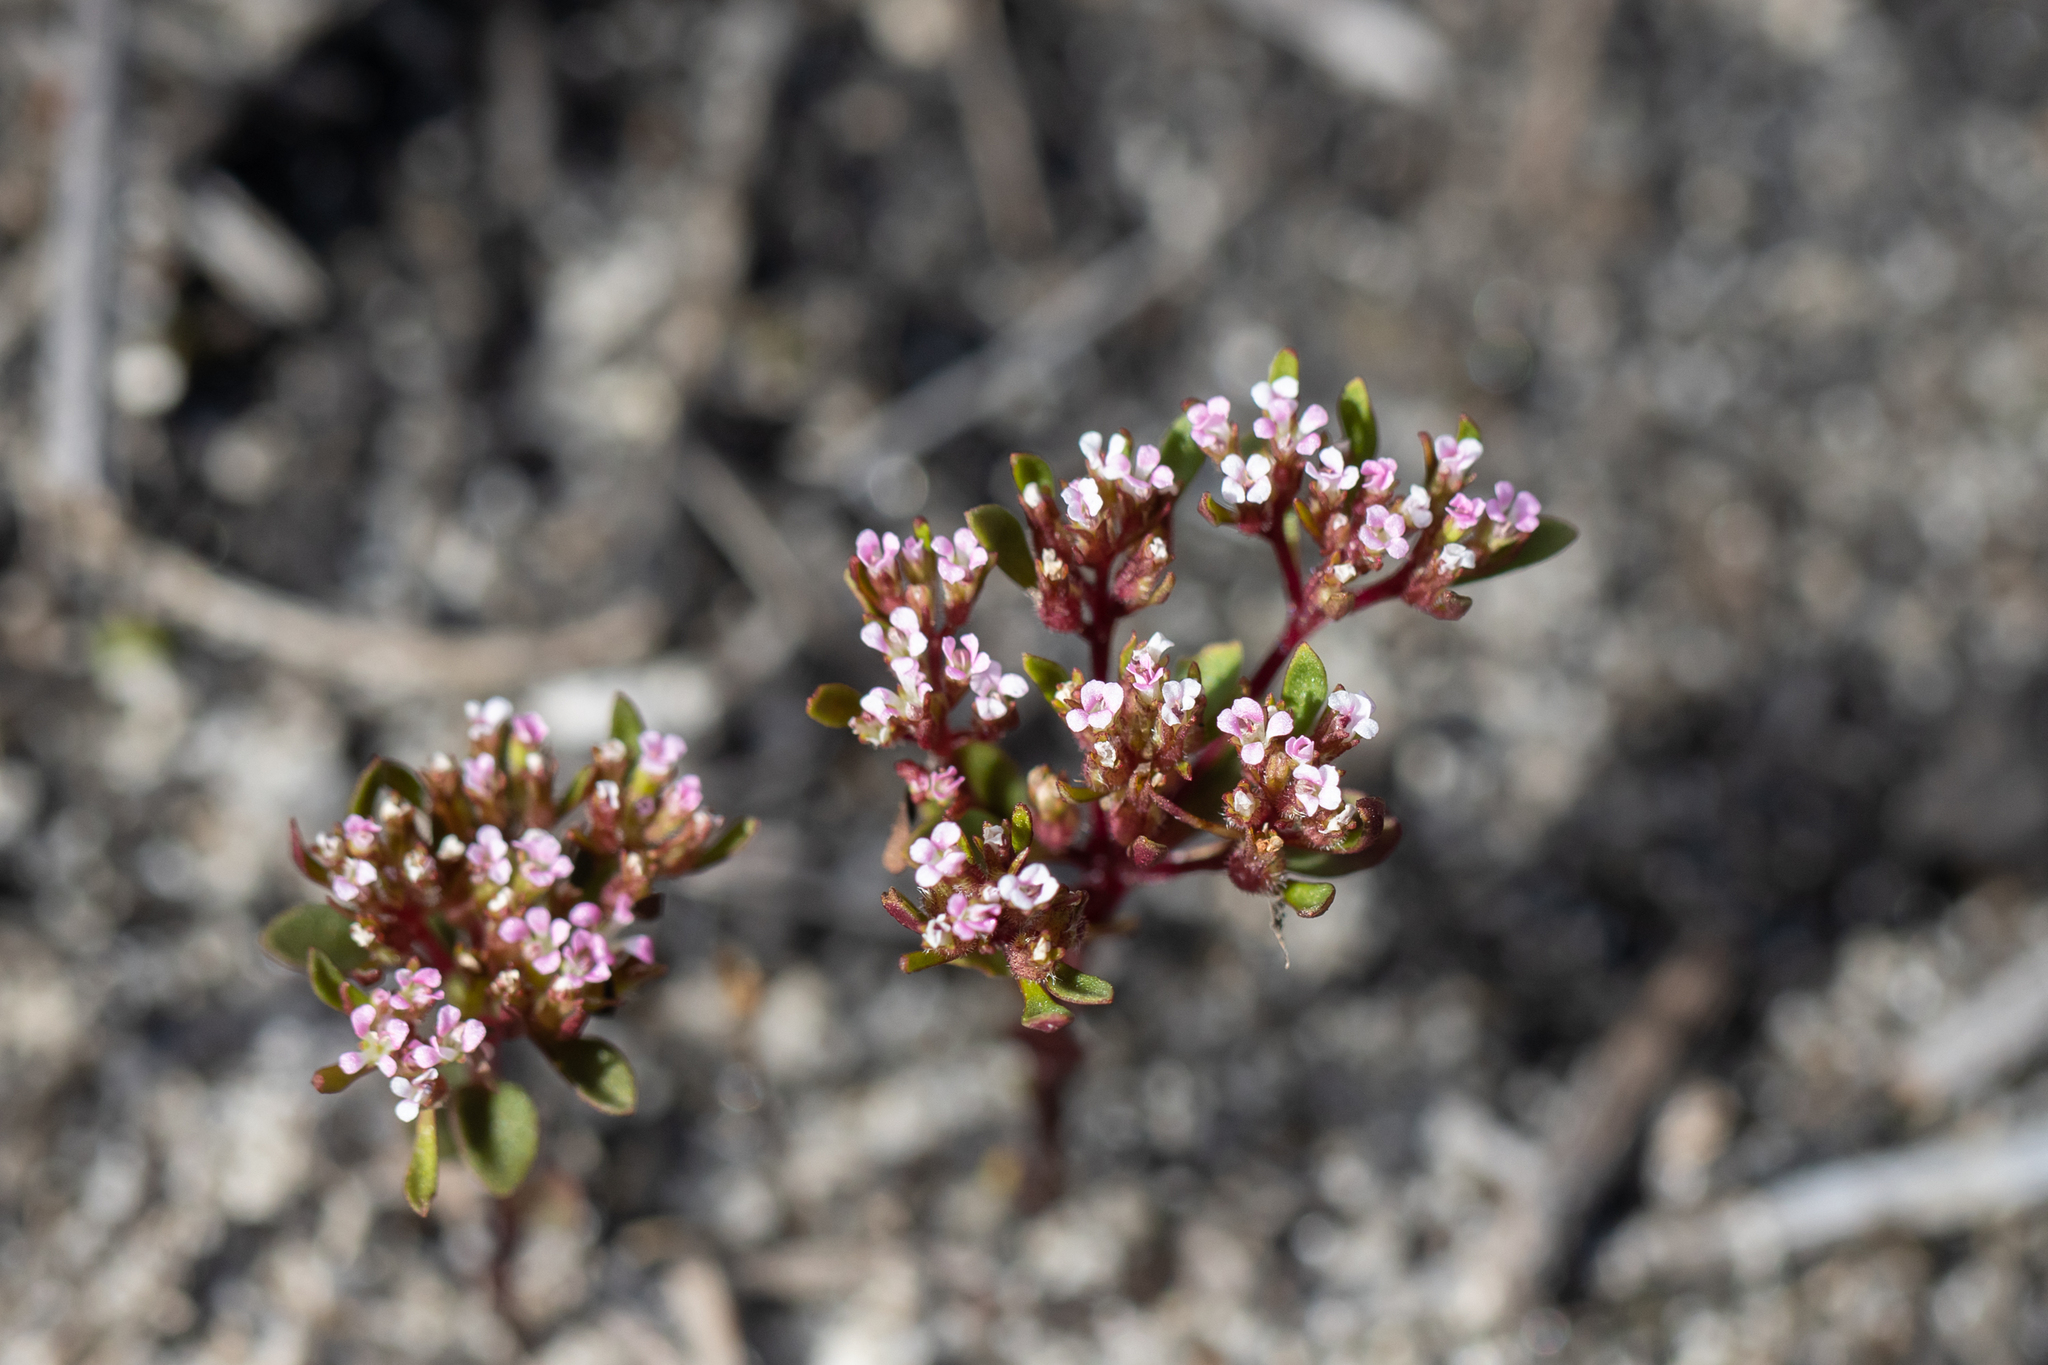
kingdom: Plantae
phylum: Tracheophyta
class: Magnoliopsida
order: Asterales
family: Stylidiaceae
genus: Levenhookia
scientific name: Levenhookia pusilla
